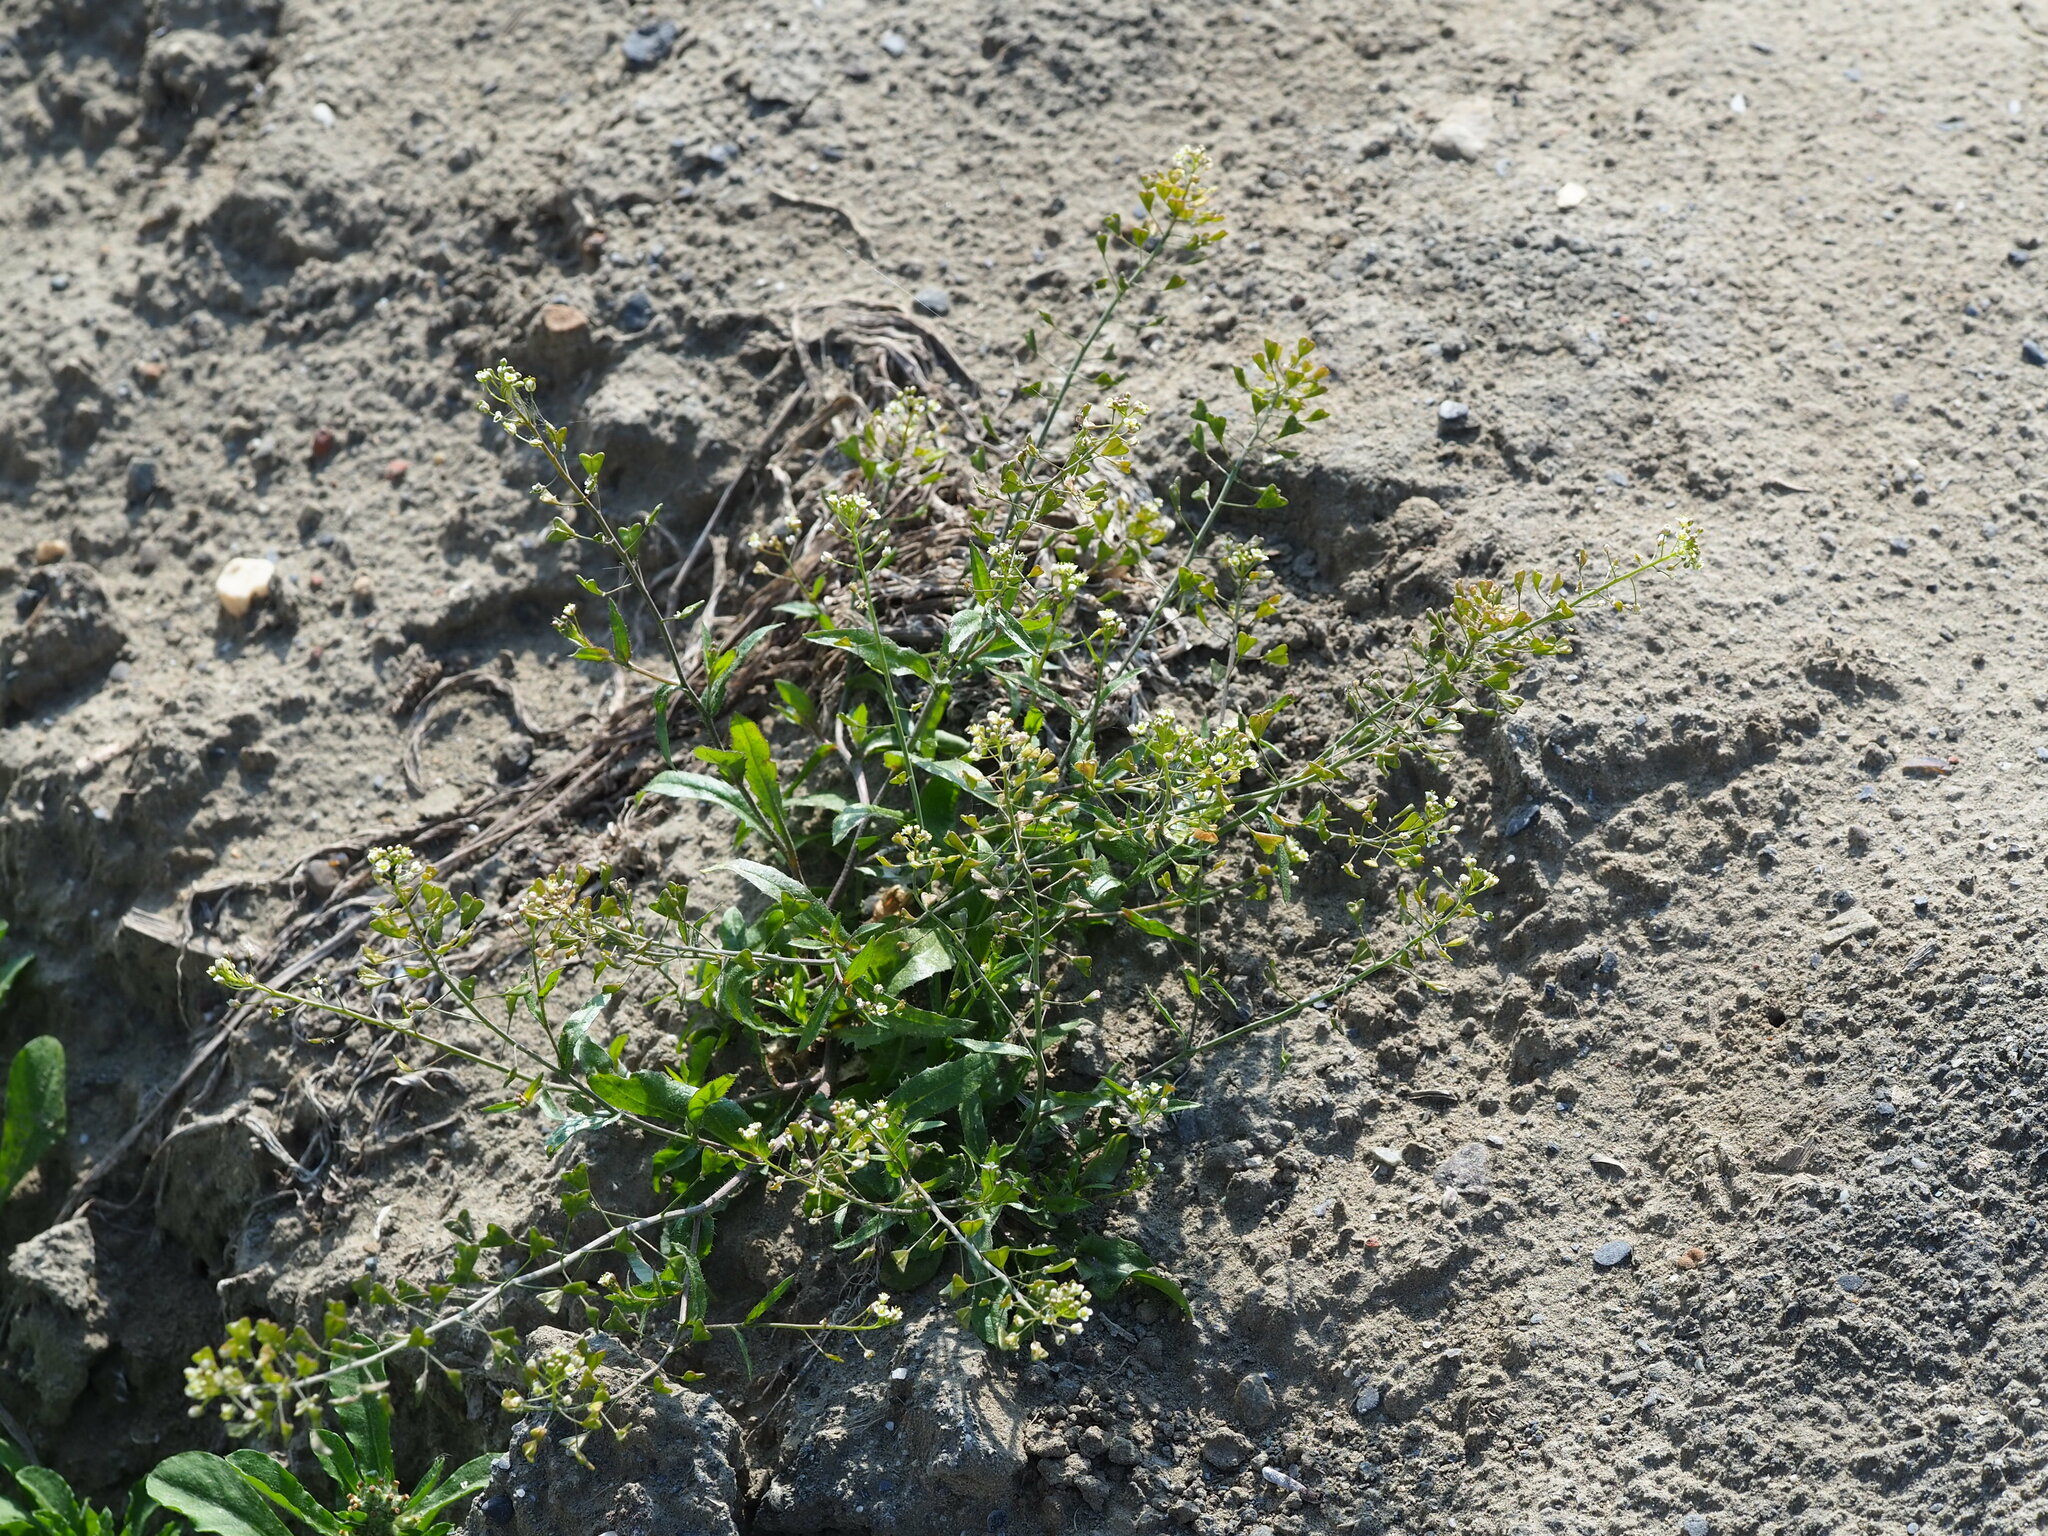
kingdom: Plantae
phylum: Tracheophyta
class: Magnoliopsida
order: Brassicales
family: Brassicaceae
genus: Capsella
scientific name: Capsella bursa-pastoris
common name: Shepherd's purse
